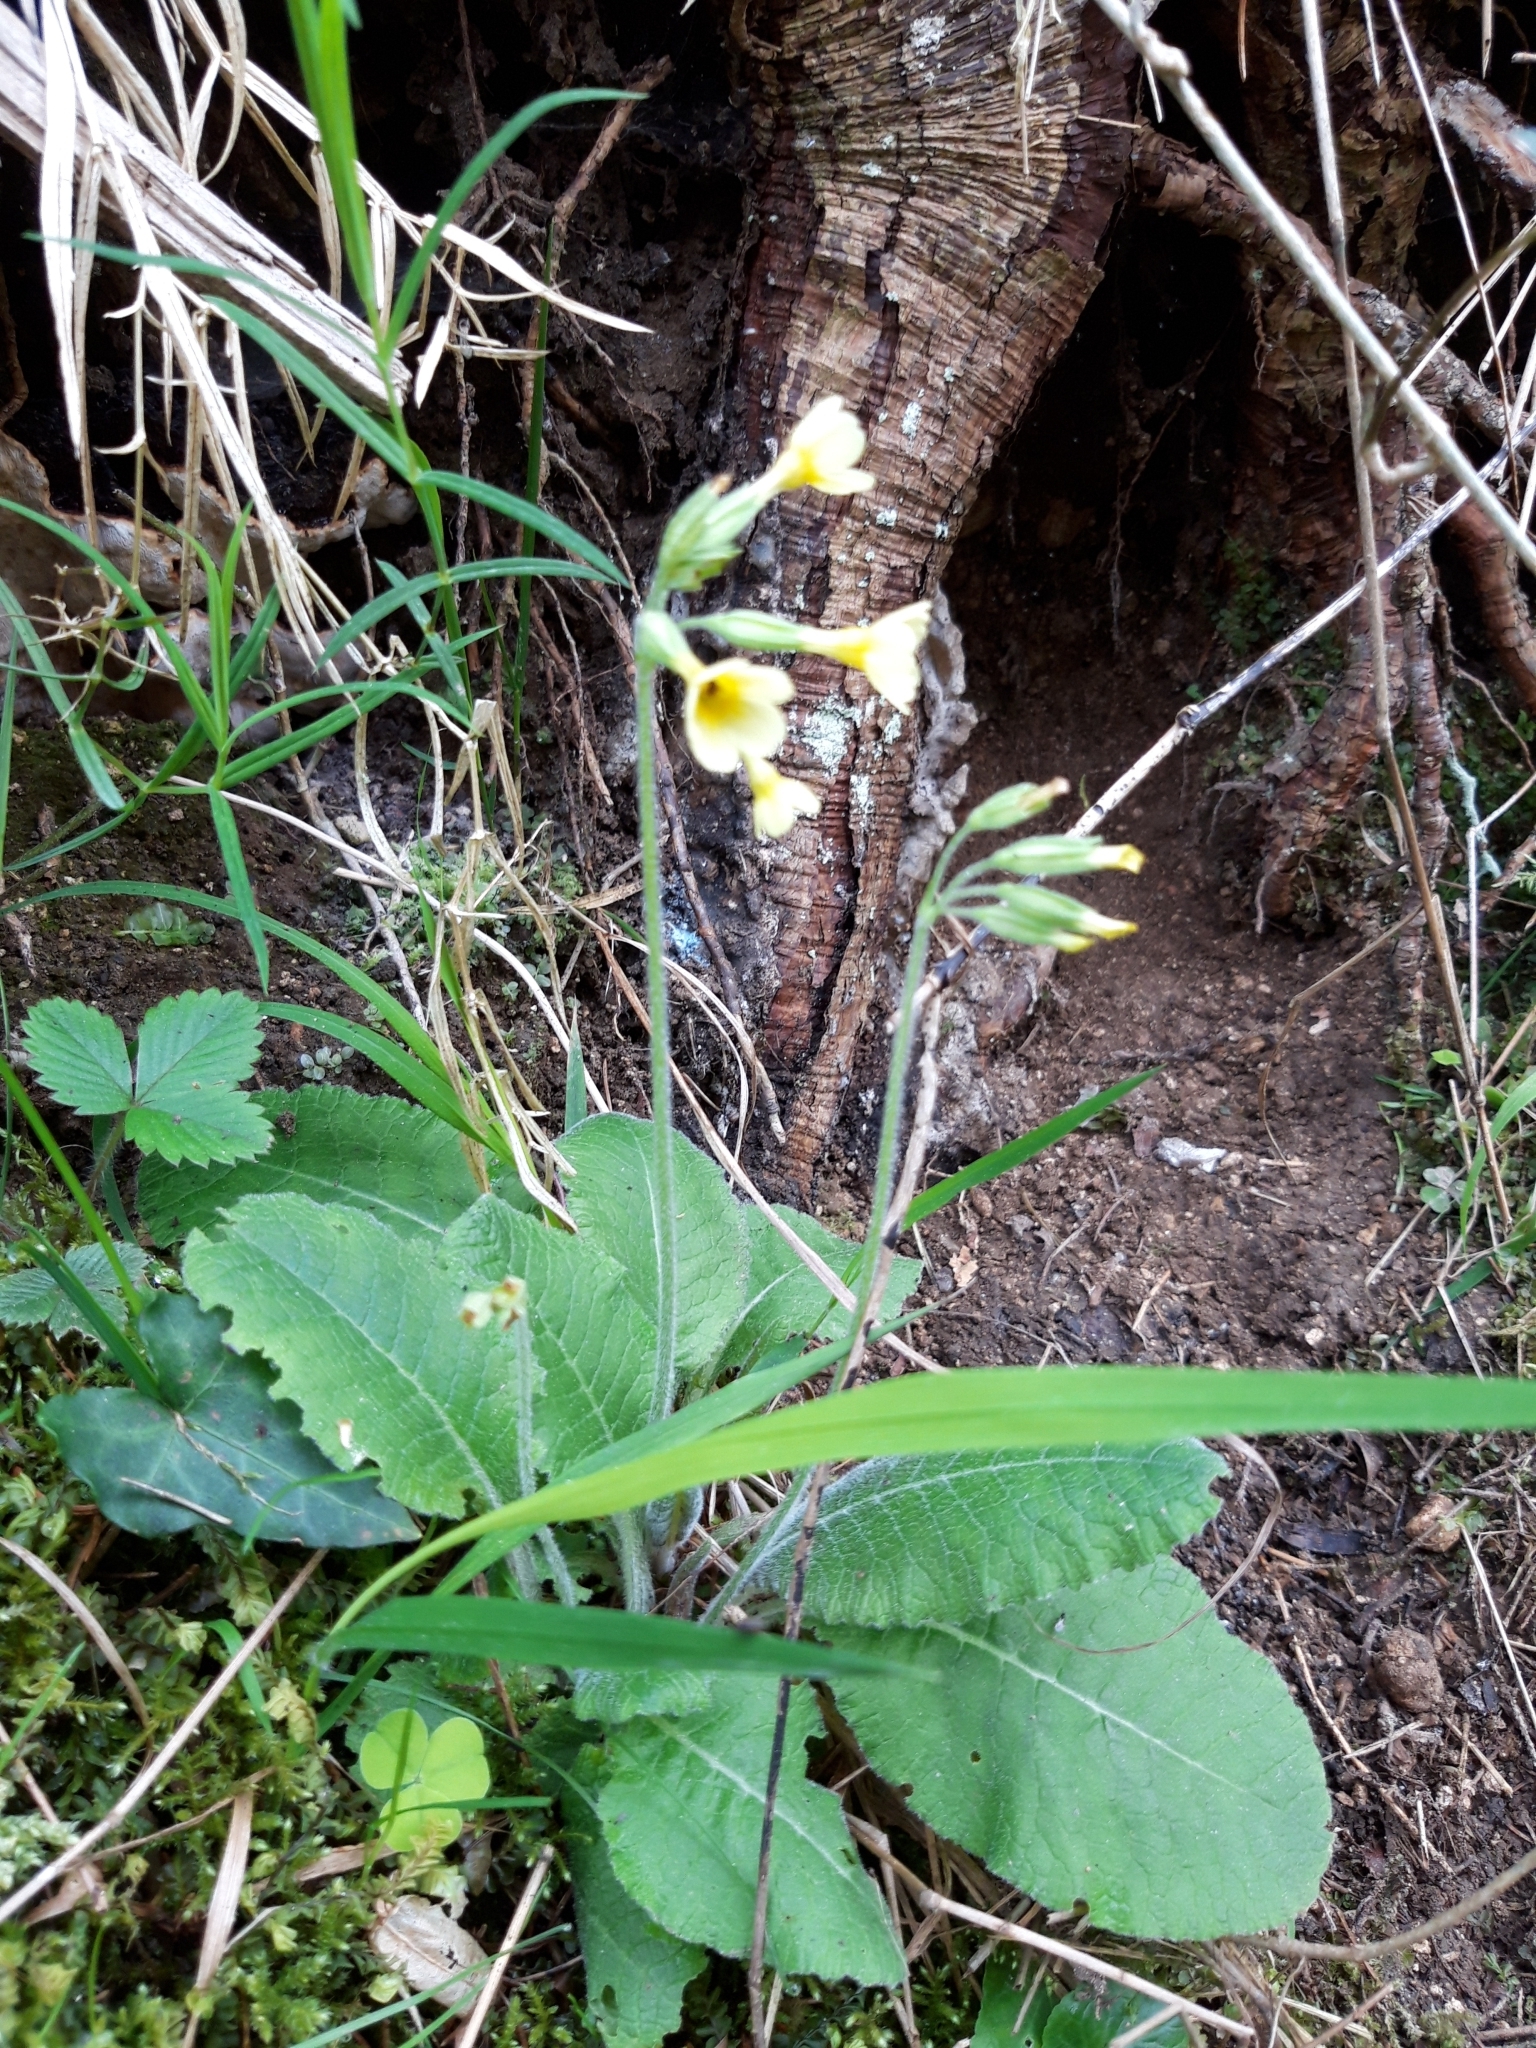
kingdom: Plantae
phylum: Tracheophyta
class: Magnoliopsida
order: Ericales
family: Primulaceae
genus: Primula
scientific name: Primula elatior
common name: Oxlip
